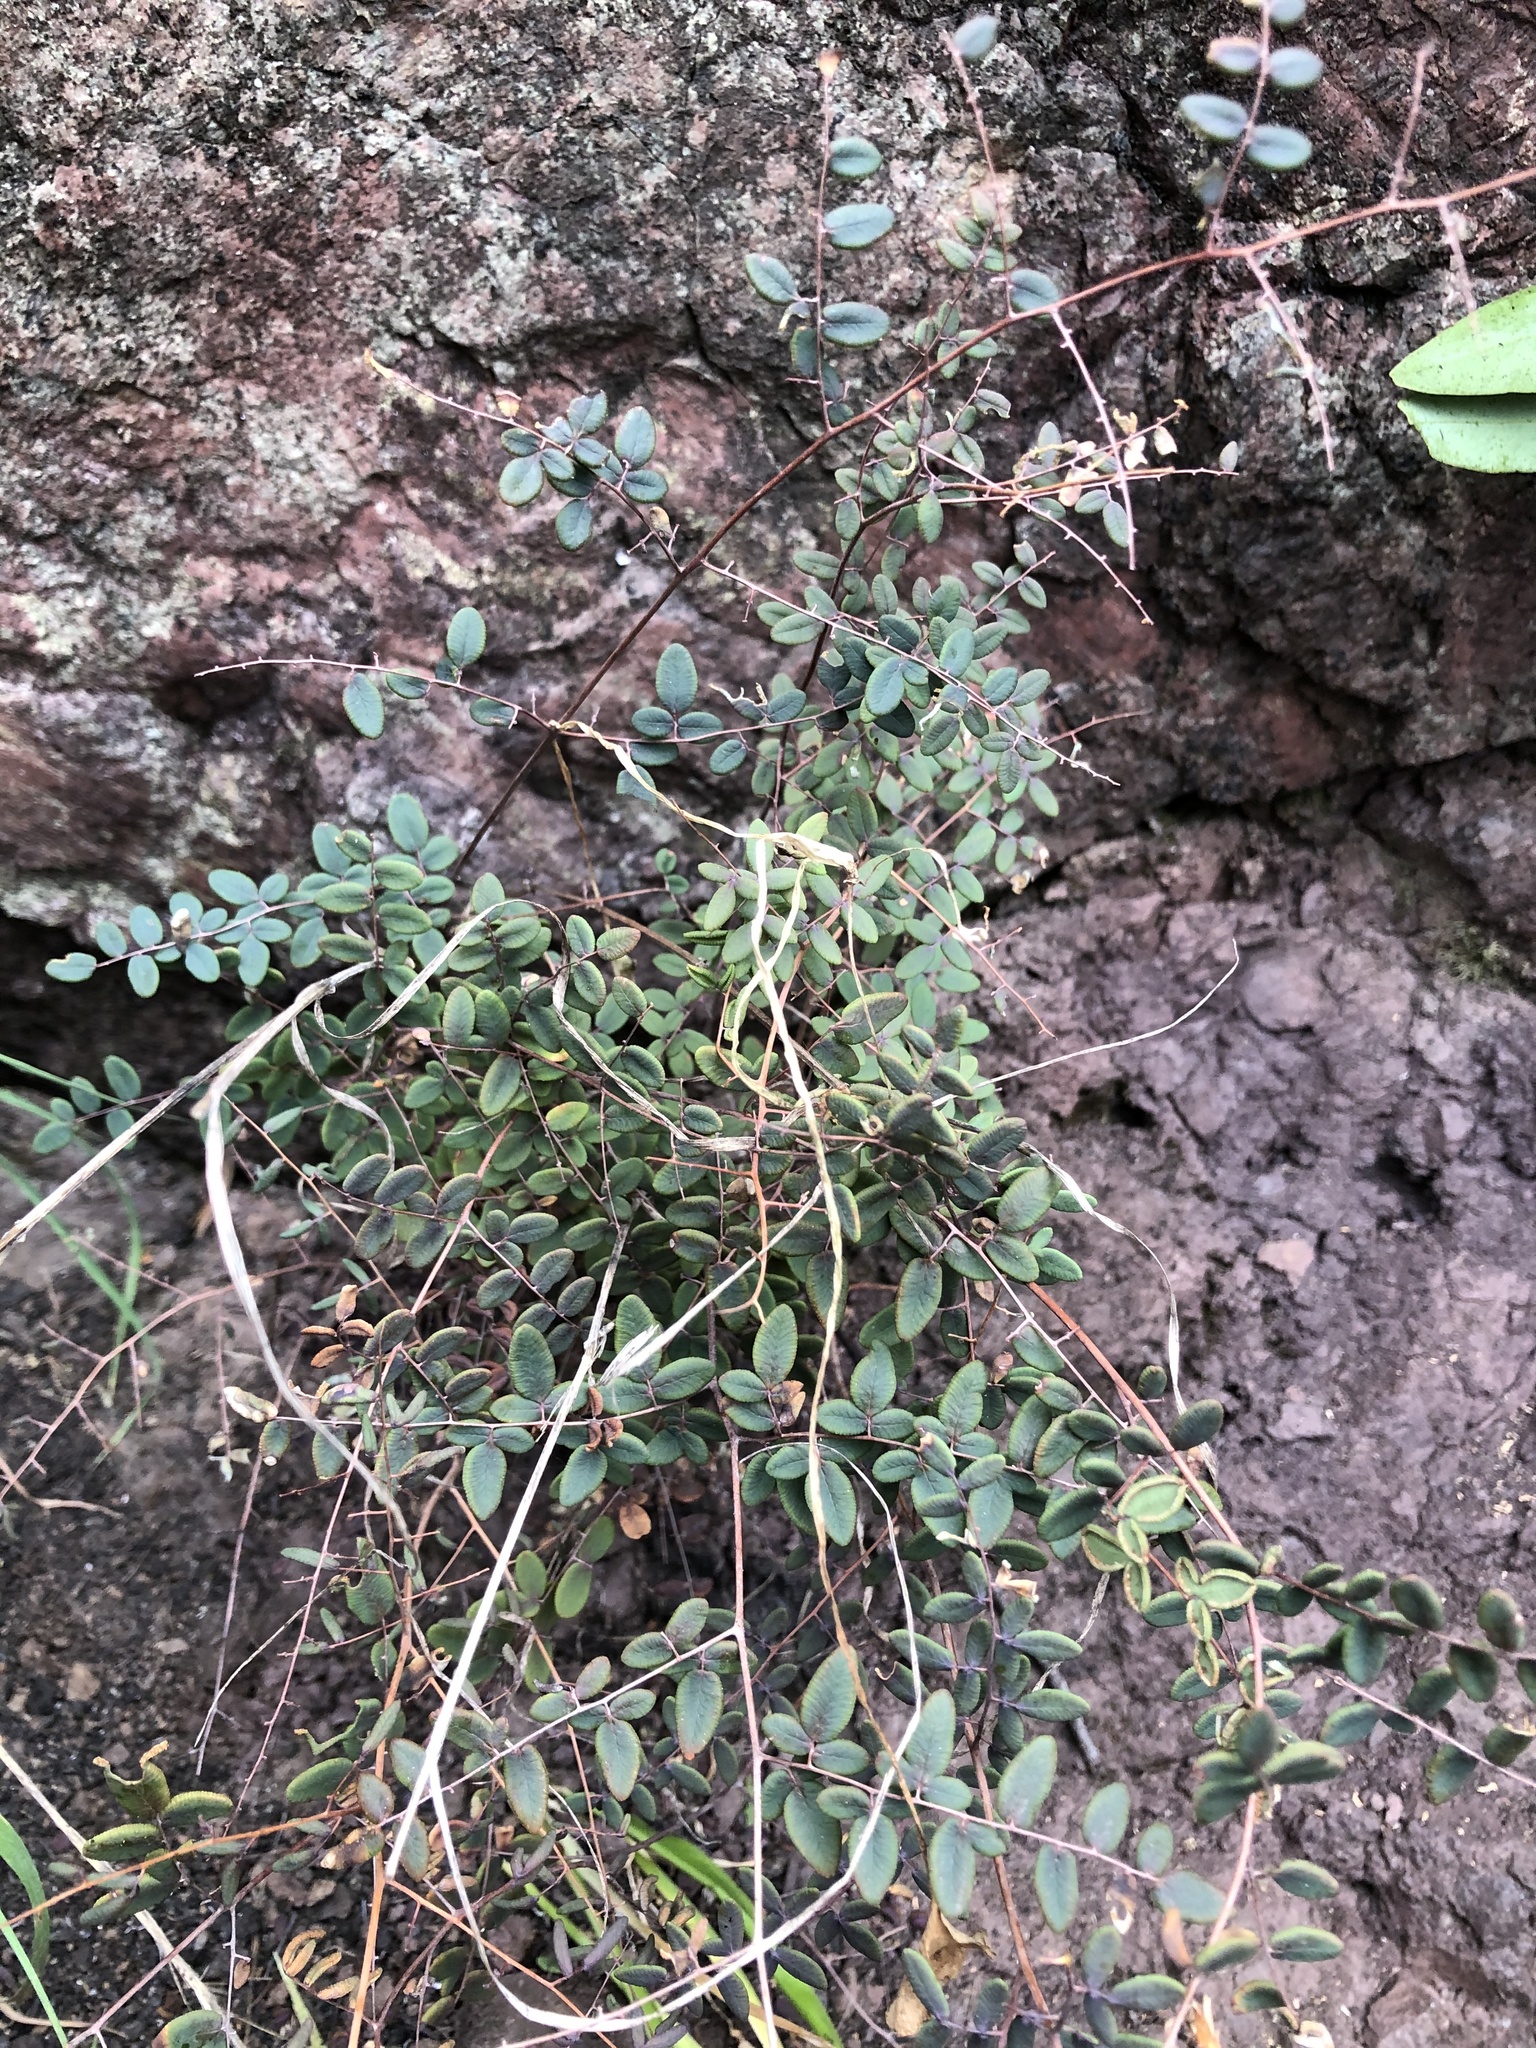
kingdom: Plantae
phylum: Tracheophyta
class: Polypodiopsida
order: Polypodiales
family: Pteridaceae
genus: Pellaea
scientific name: Pellaea andromedifolia
